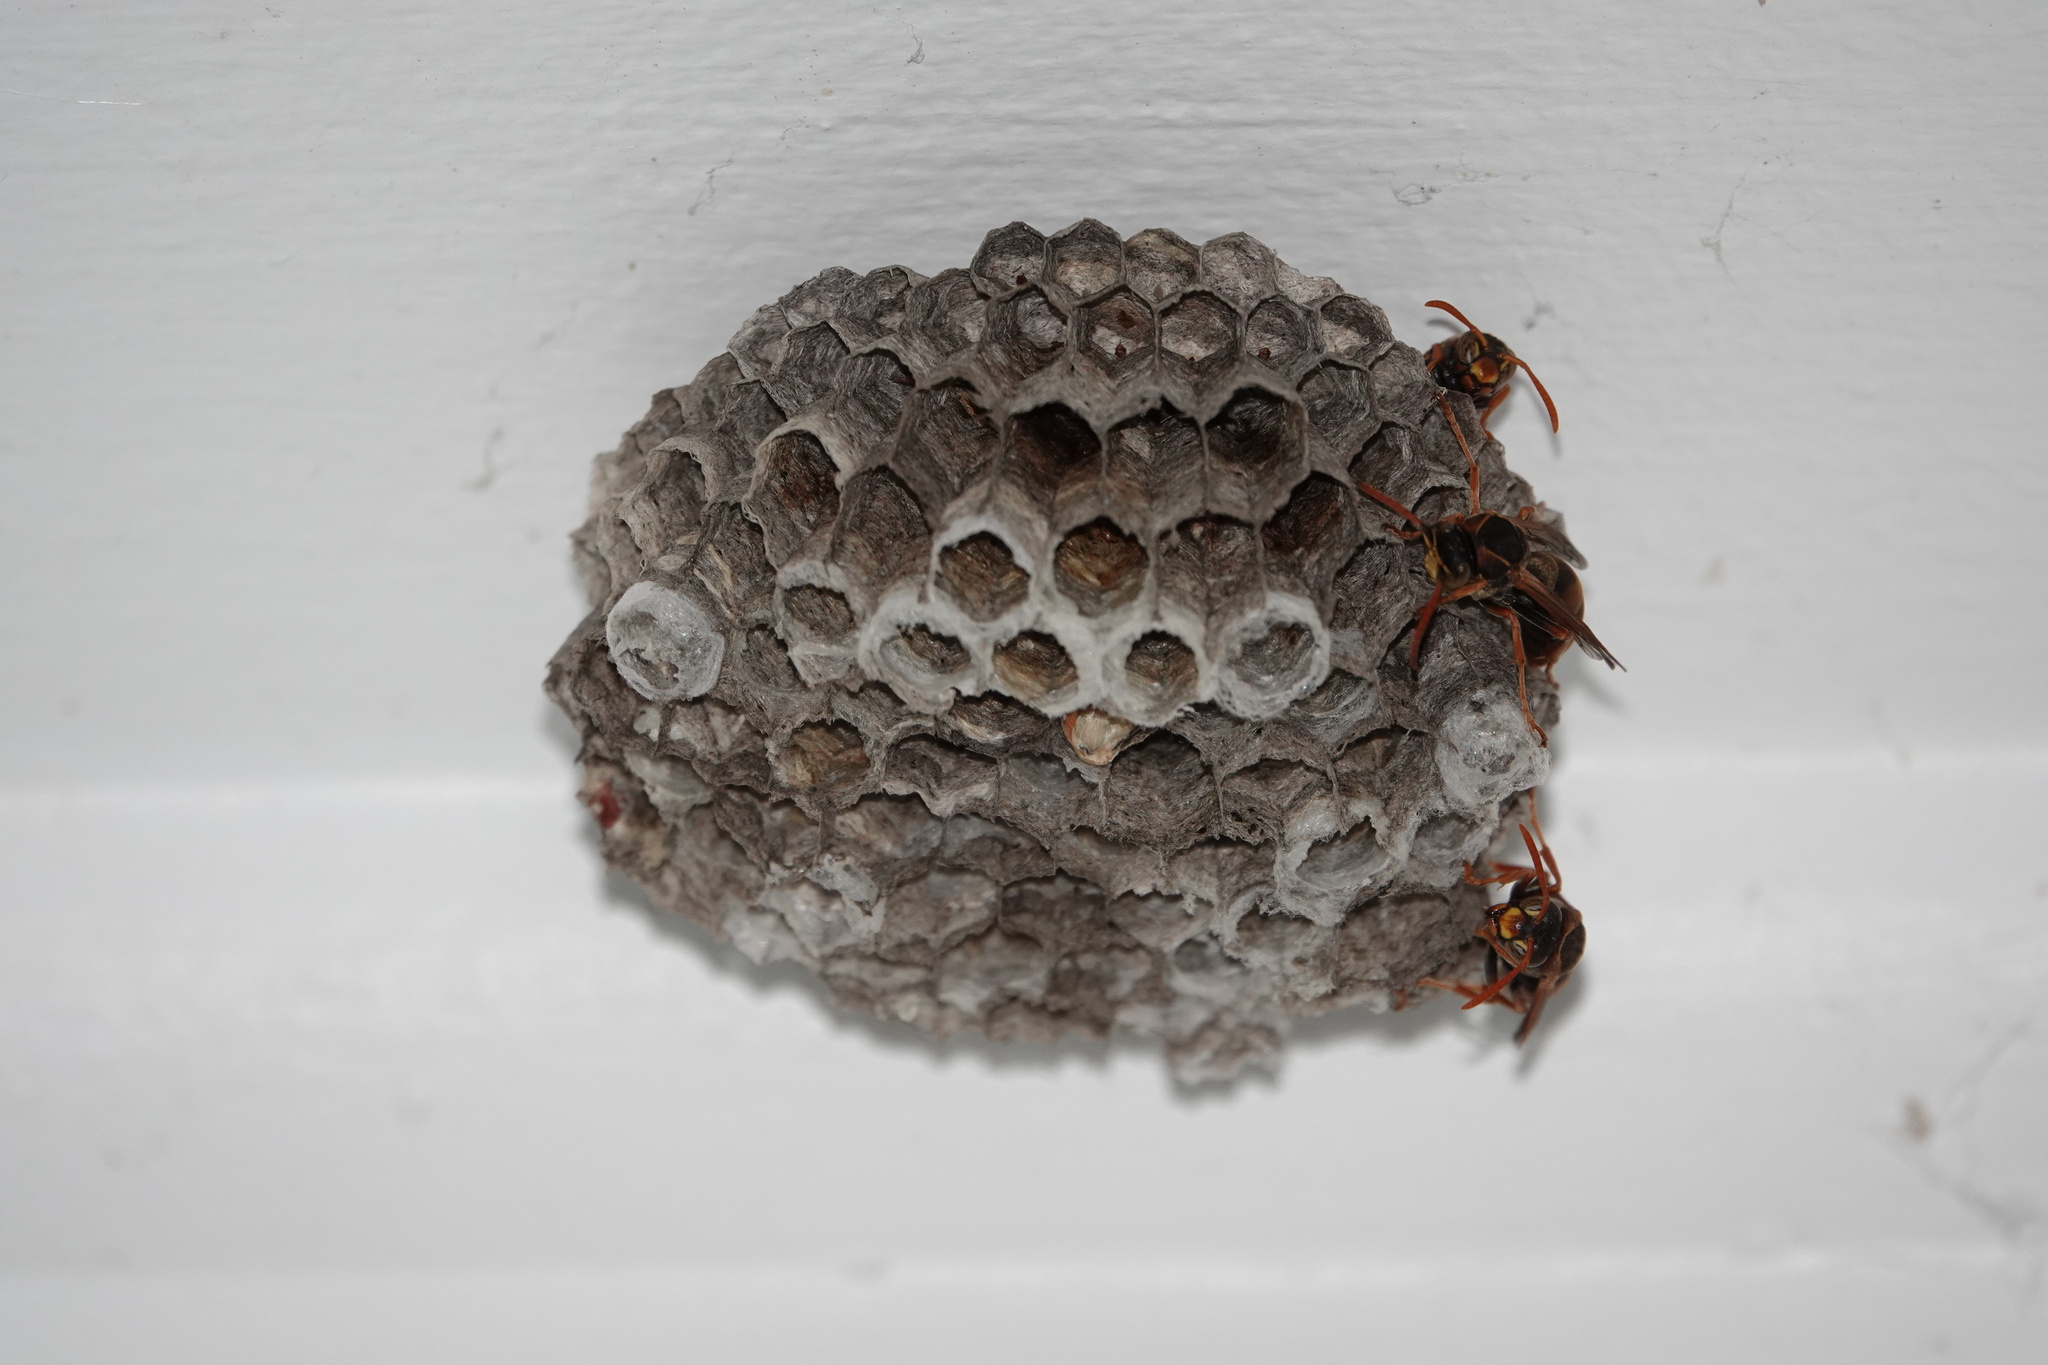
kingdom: Animalia
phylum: Arthropoda
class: Insecta
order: Hymenoptera
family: Eumenidae
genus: Polistes
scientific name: Polistes humilis
